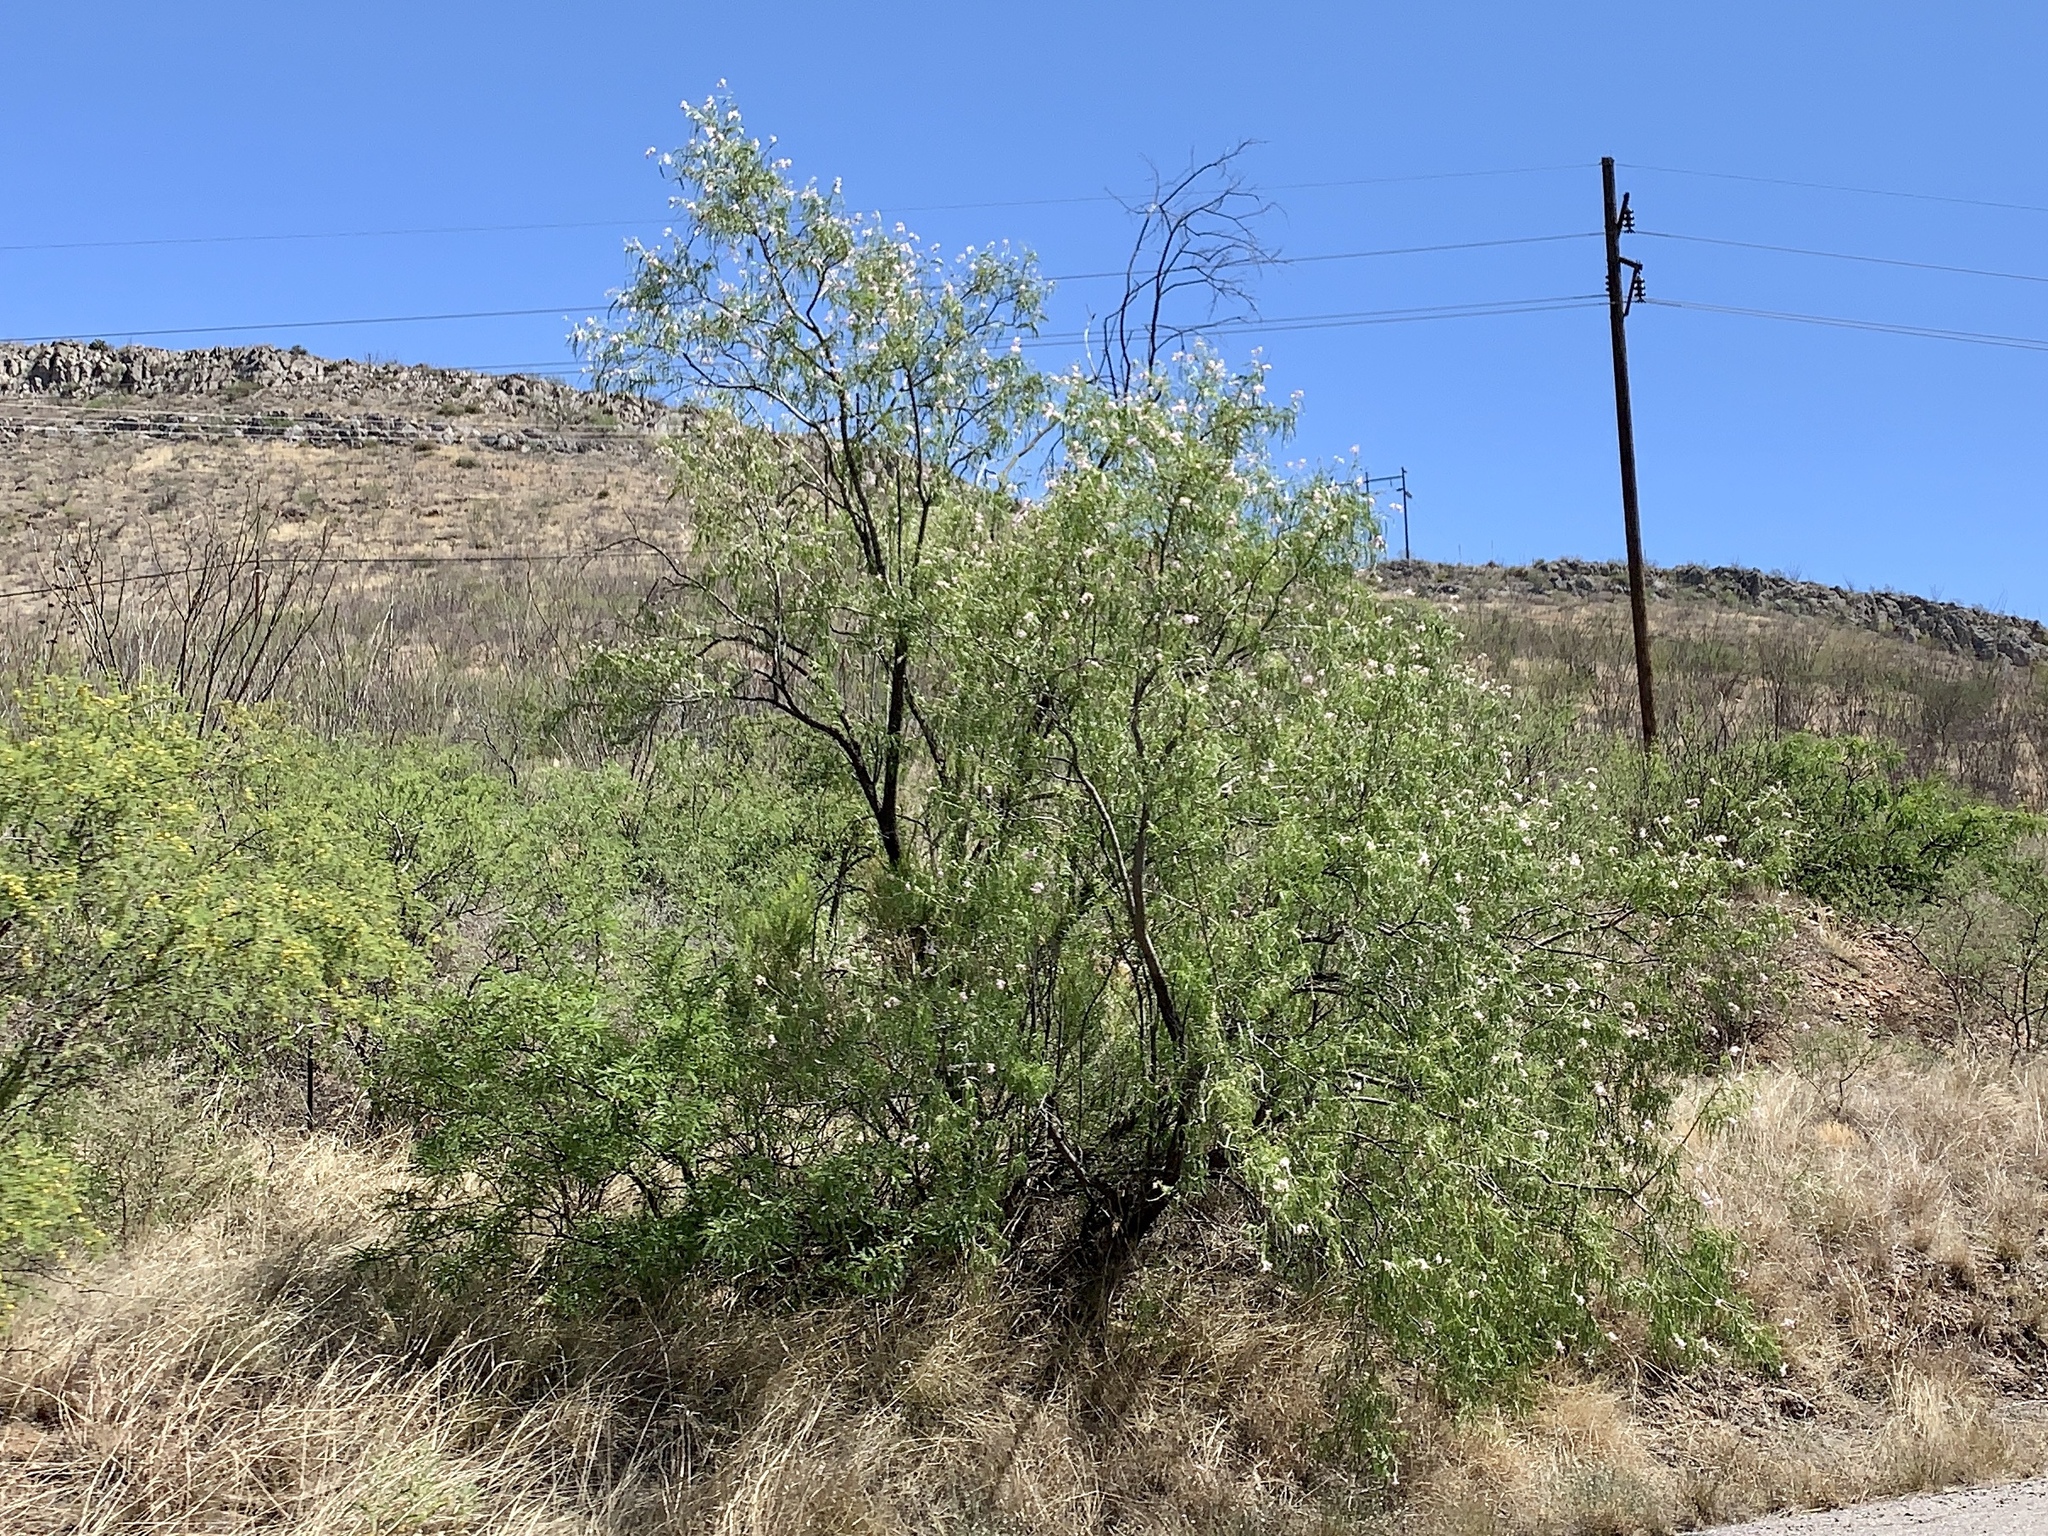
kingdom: Plantae
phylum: Tracheophyta
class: Magnoliopsida
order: Lamiales
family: Bignoniaceae
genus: Chilopsis
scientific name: Chilopsis linearis
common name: Desert-willow
